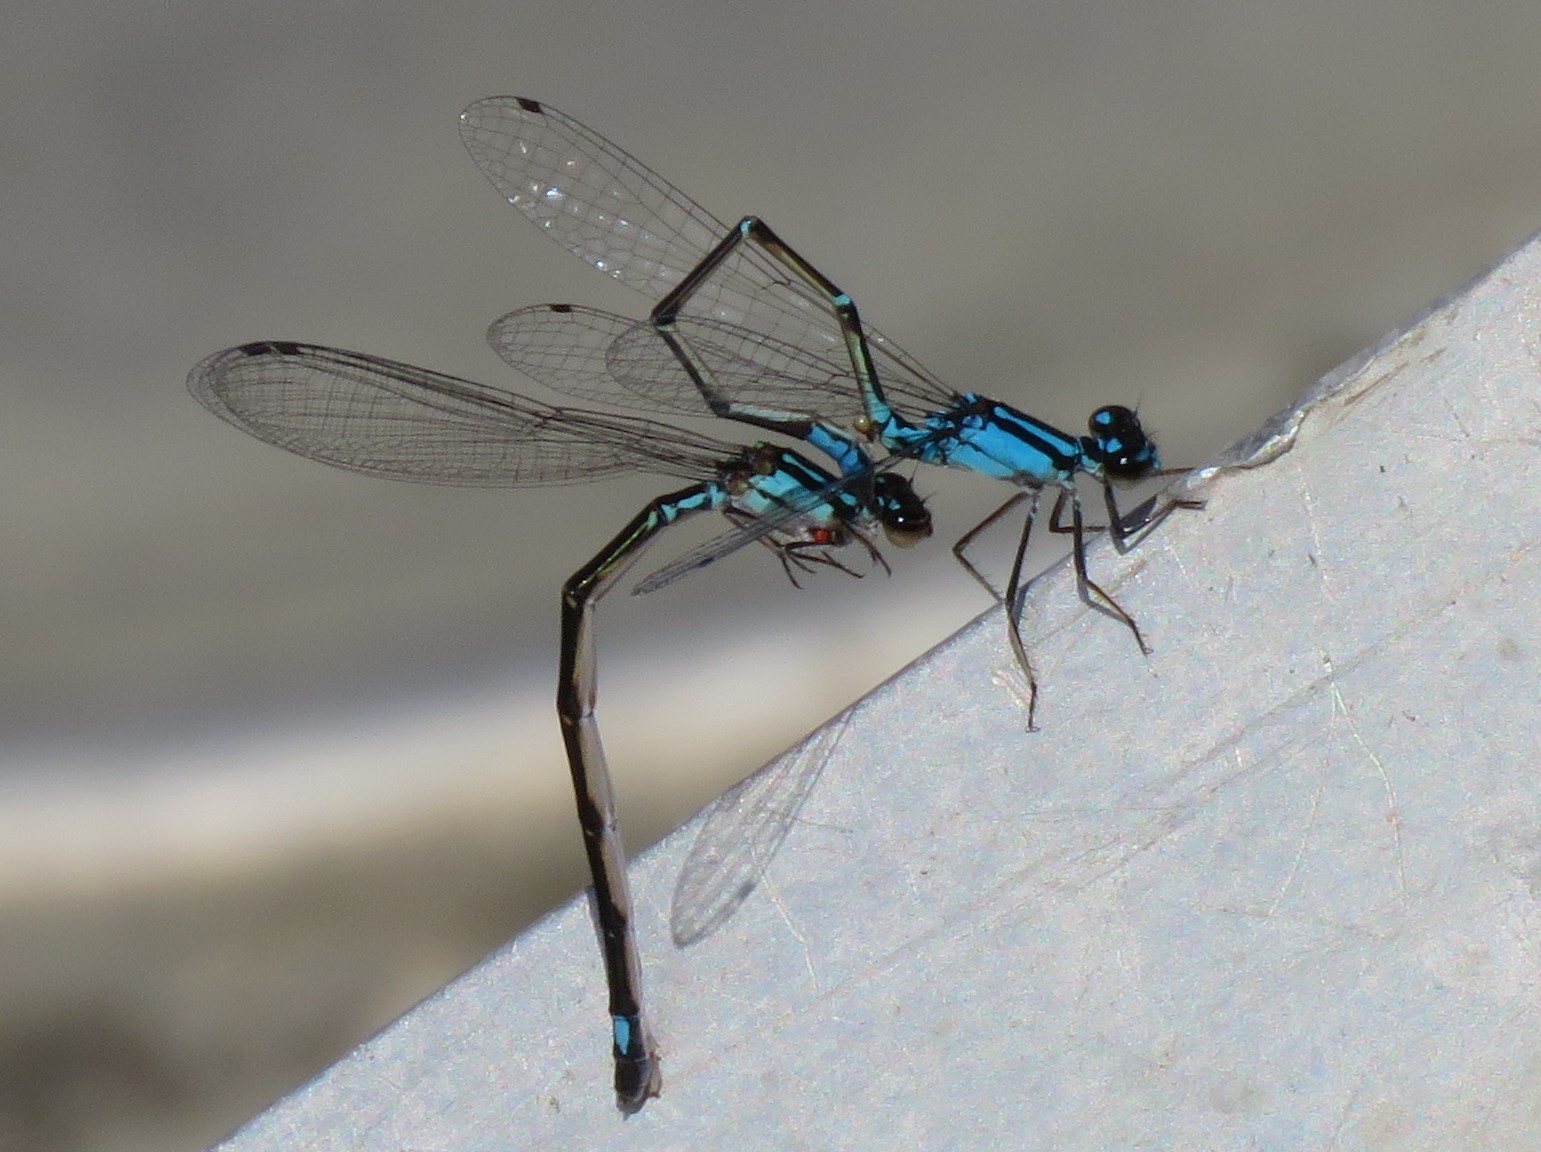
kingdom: Animalia
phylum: Arthropoda
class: Insecta
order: Odonata
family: Coenagrionidae
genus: Enallagma
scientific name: Enallagma geminatum
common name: Skimming bluet
